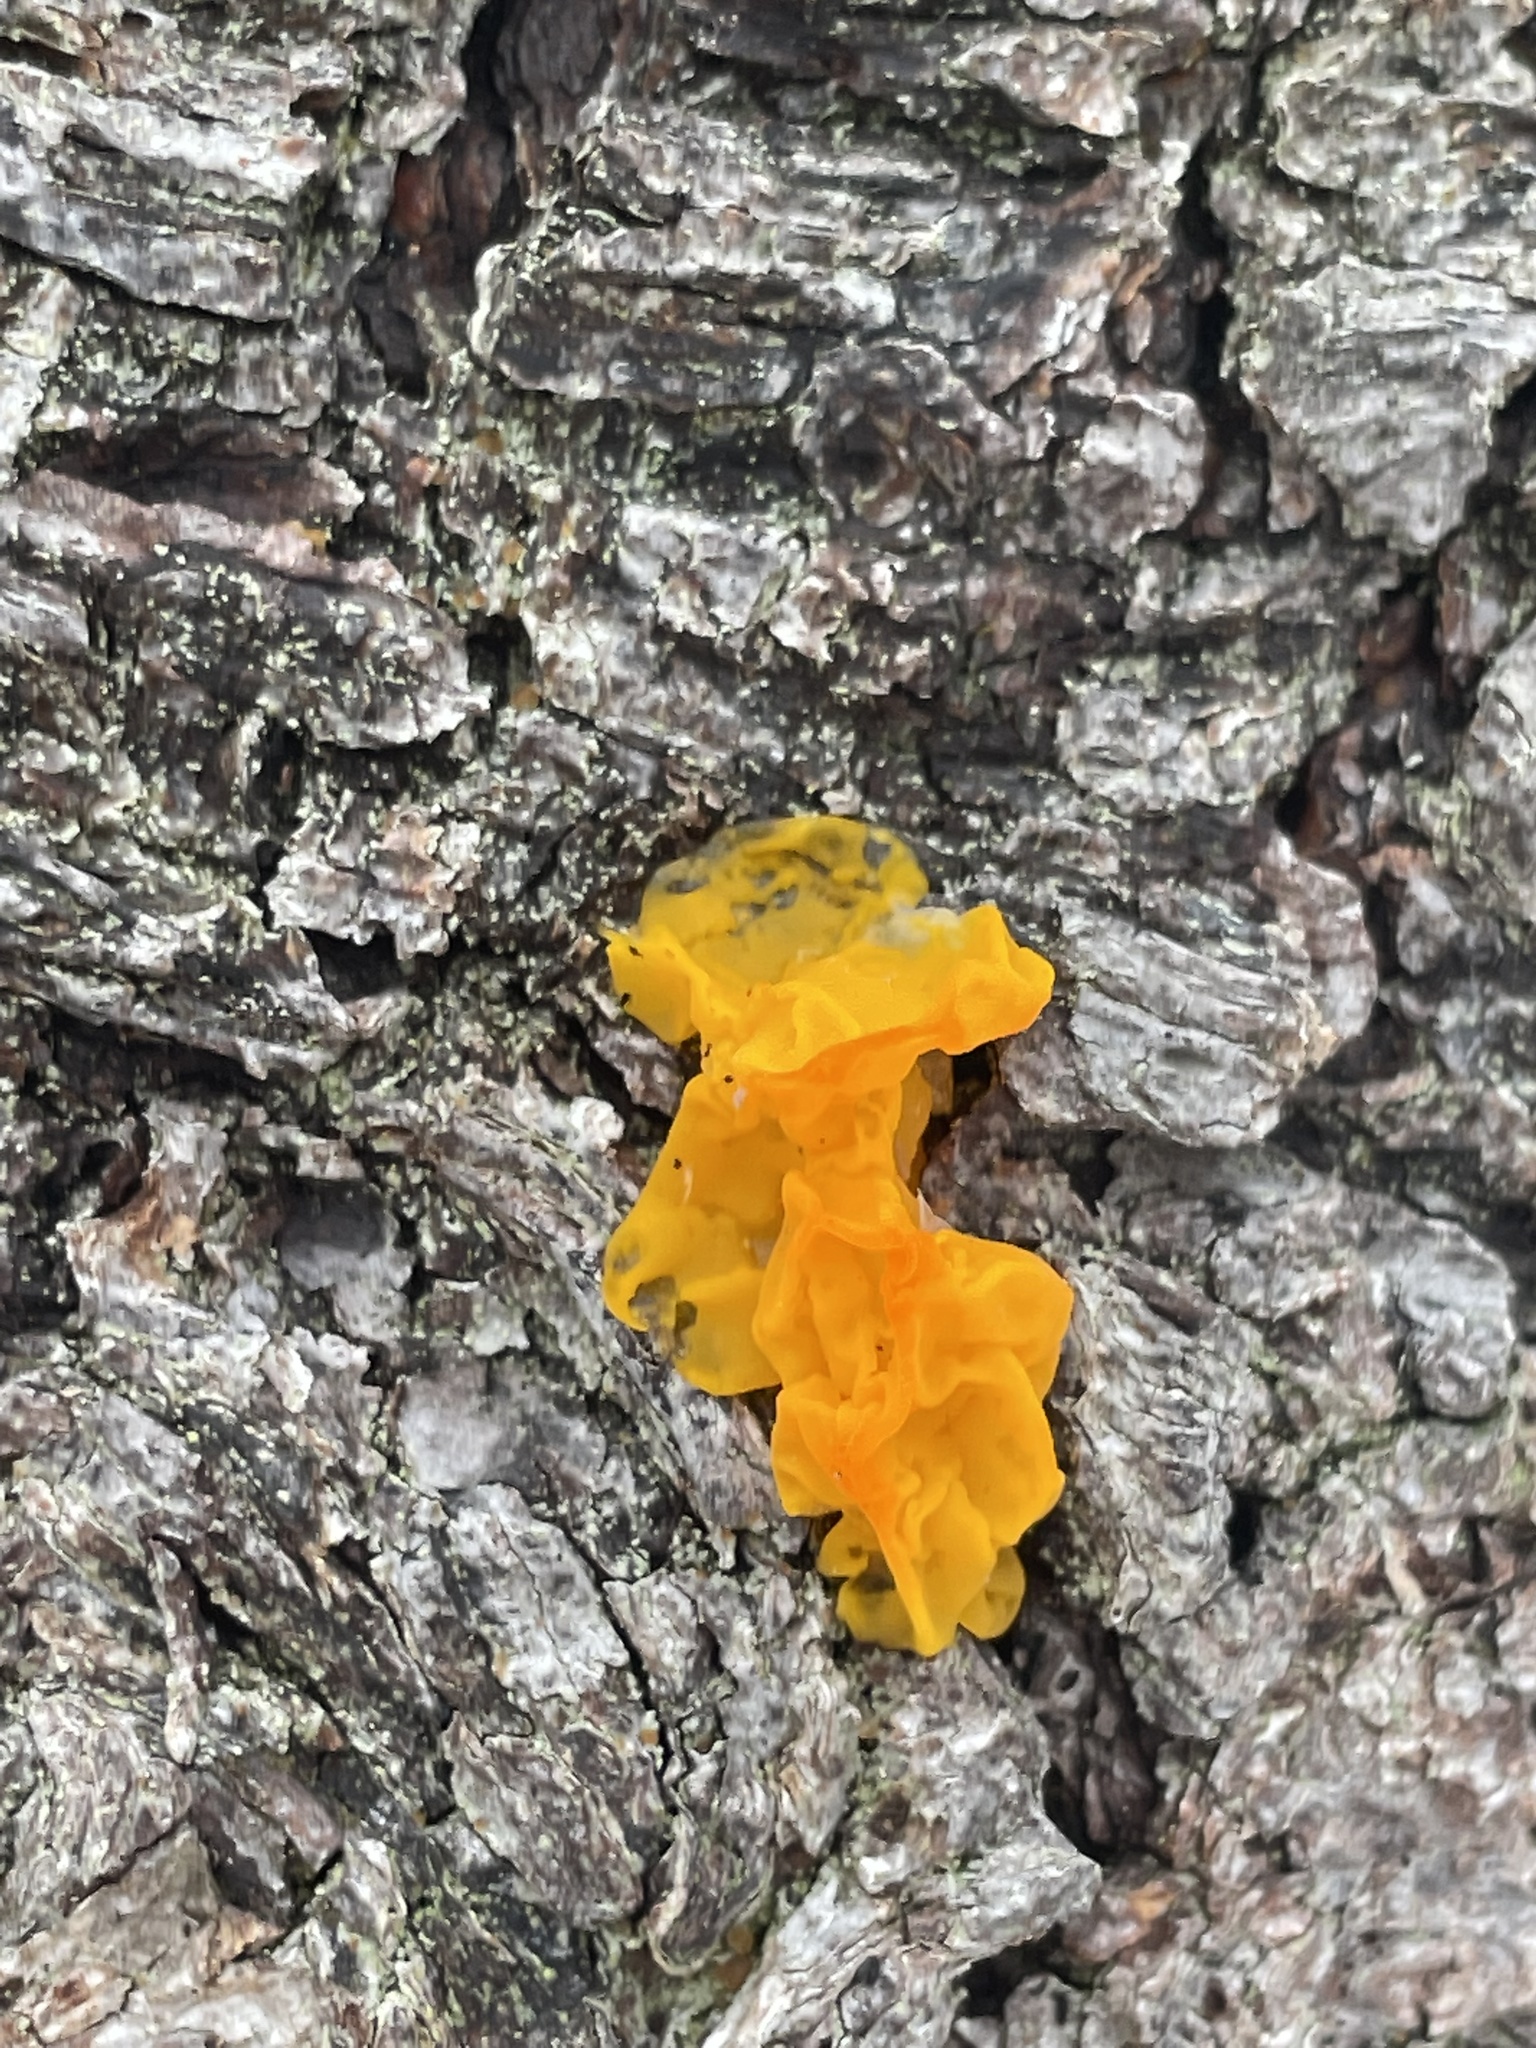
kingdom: Fungi
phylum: Basidiomycota
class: Tremellomycetes
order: Tremellales
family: Tremellaceae
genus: Tremella
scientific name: Tremella mesenterica
